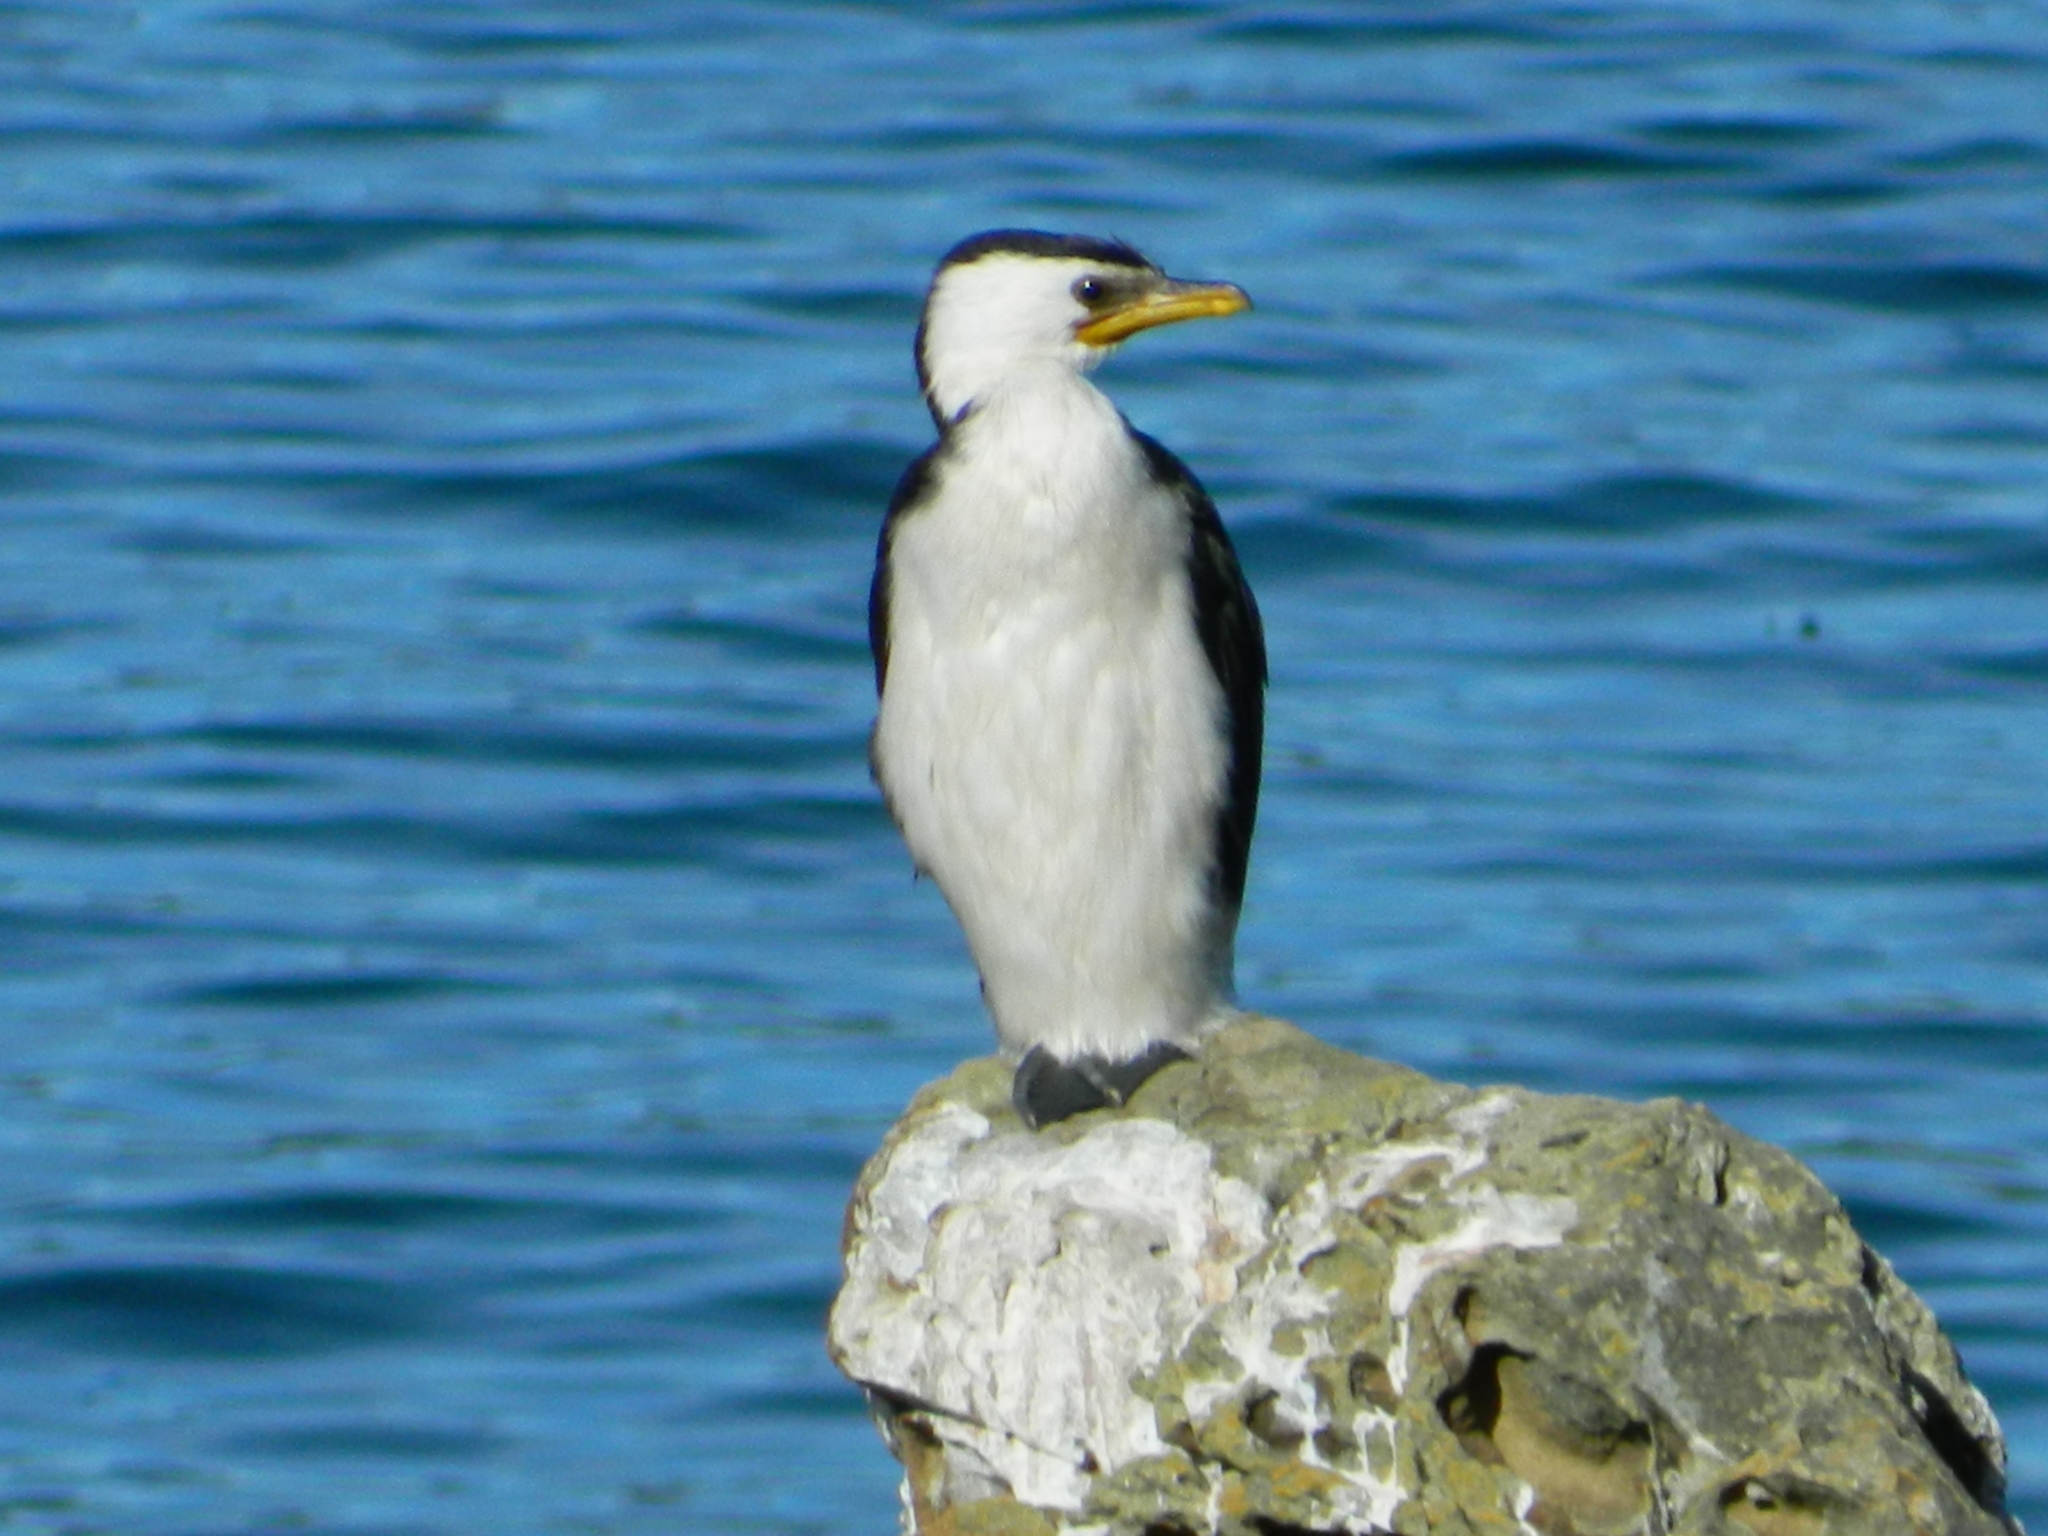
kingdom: Animalia
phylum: Chordata
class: Aves
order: Suliformes
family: Phalacrocoracidae
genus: Microcarbo
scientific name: Microcarbo melanoleucos
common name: Little pied cormorant
